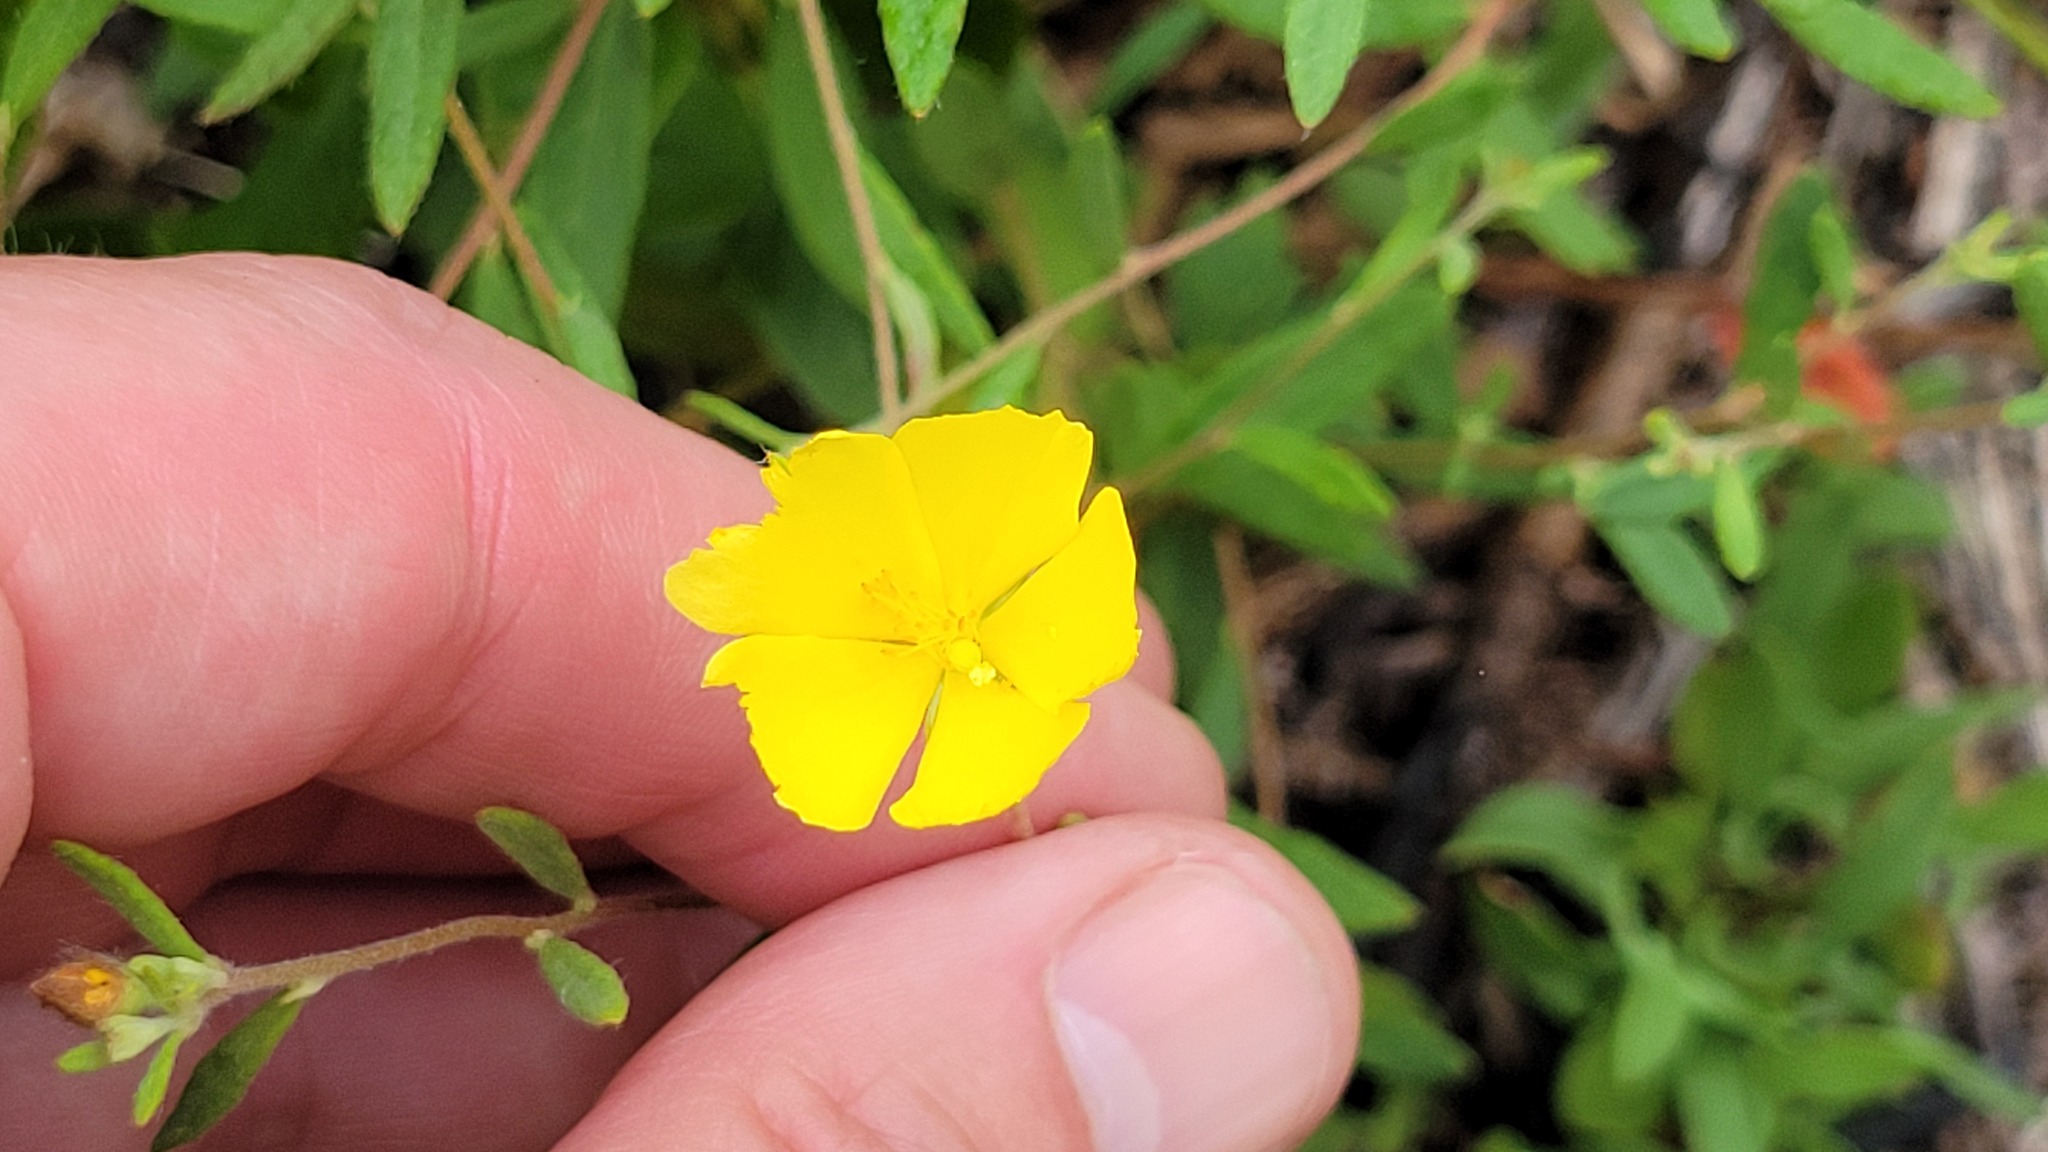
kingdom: Plantae
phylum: Tracheophyta
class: Magnoliopsida
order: Malvales
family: Cistaceae
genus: Crocanthemum
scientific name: Crocanthemum canadense
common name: Canada frostweed
